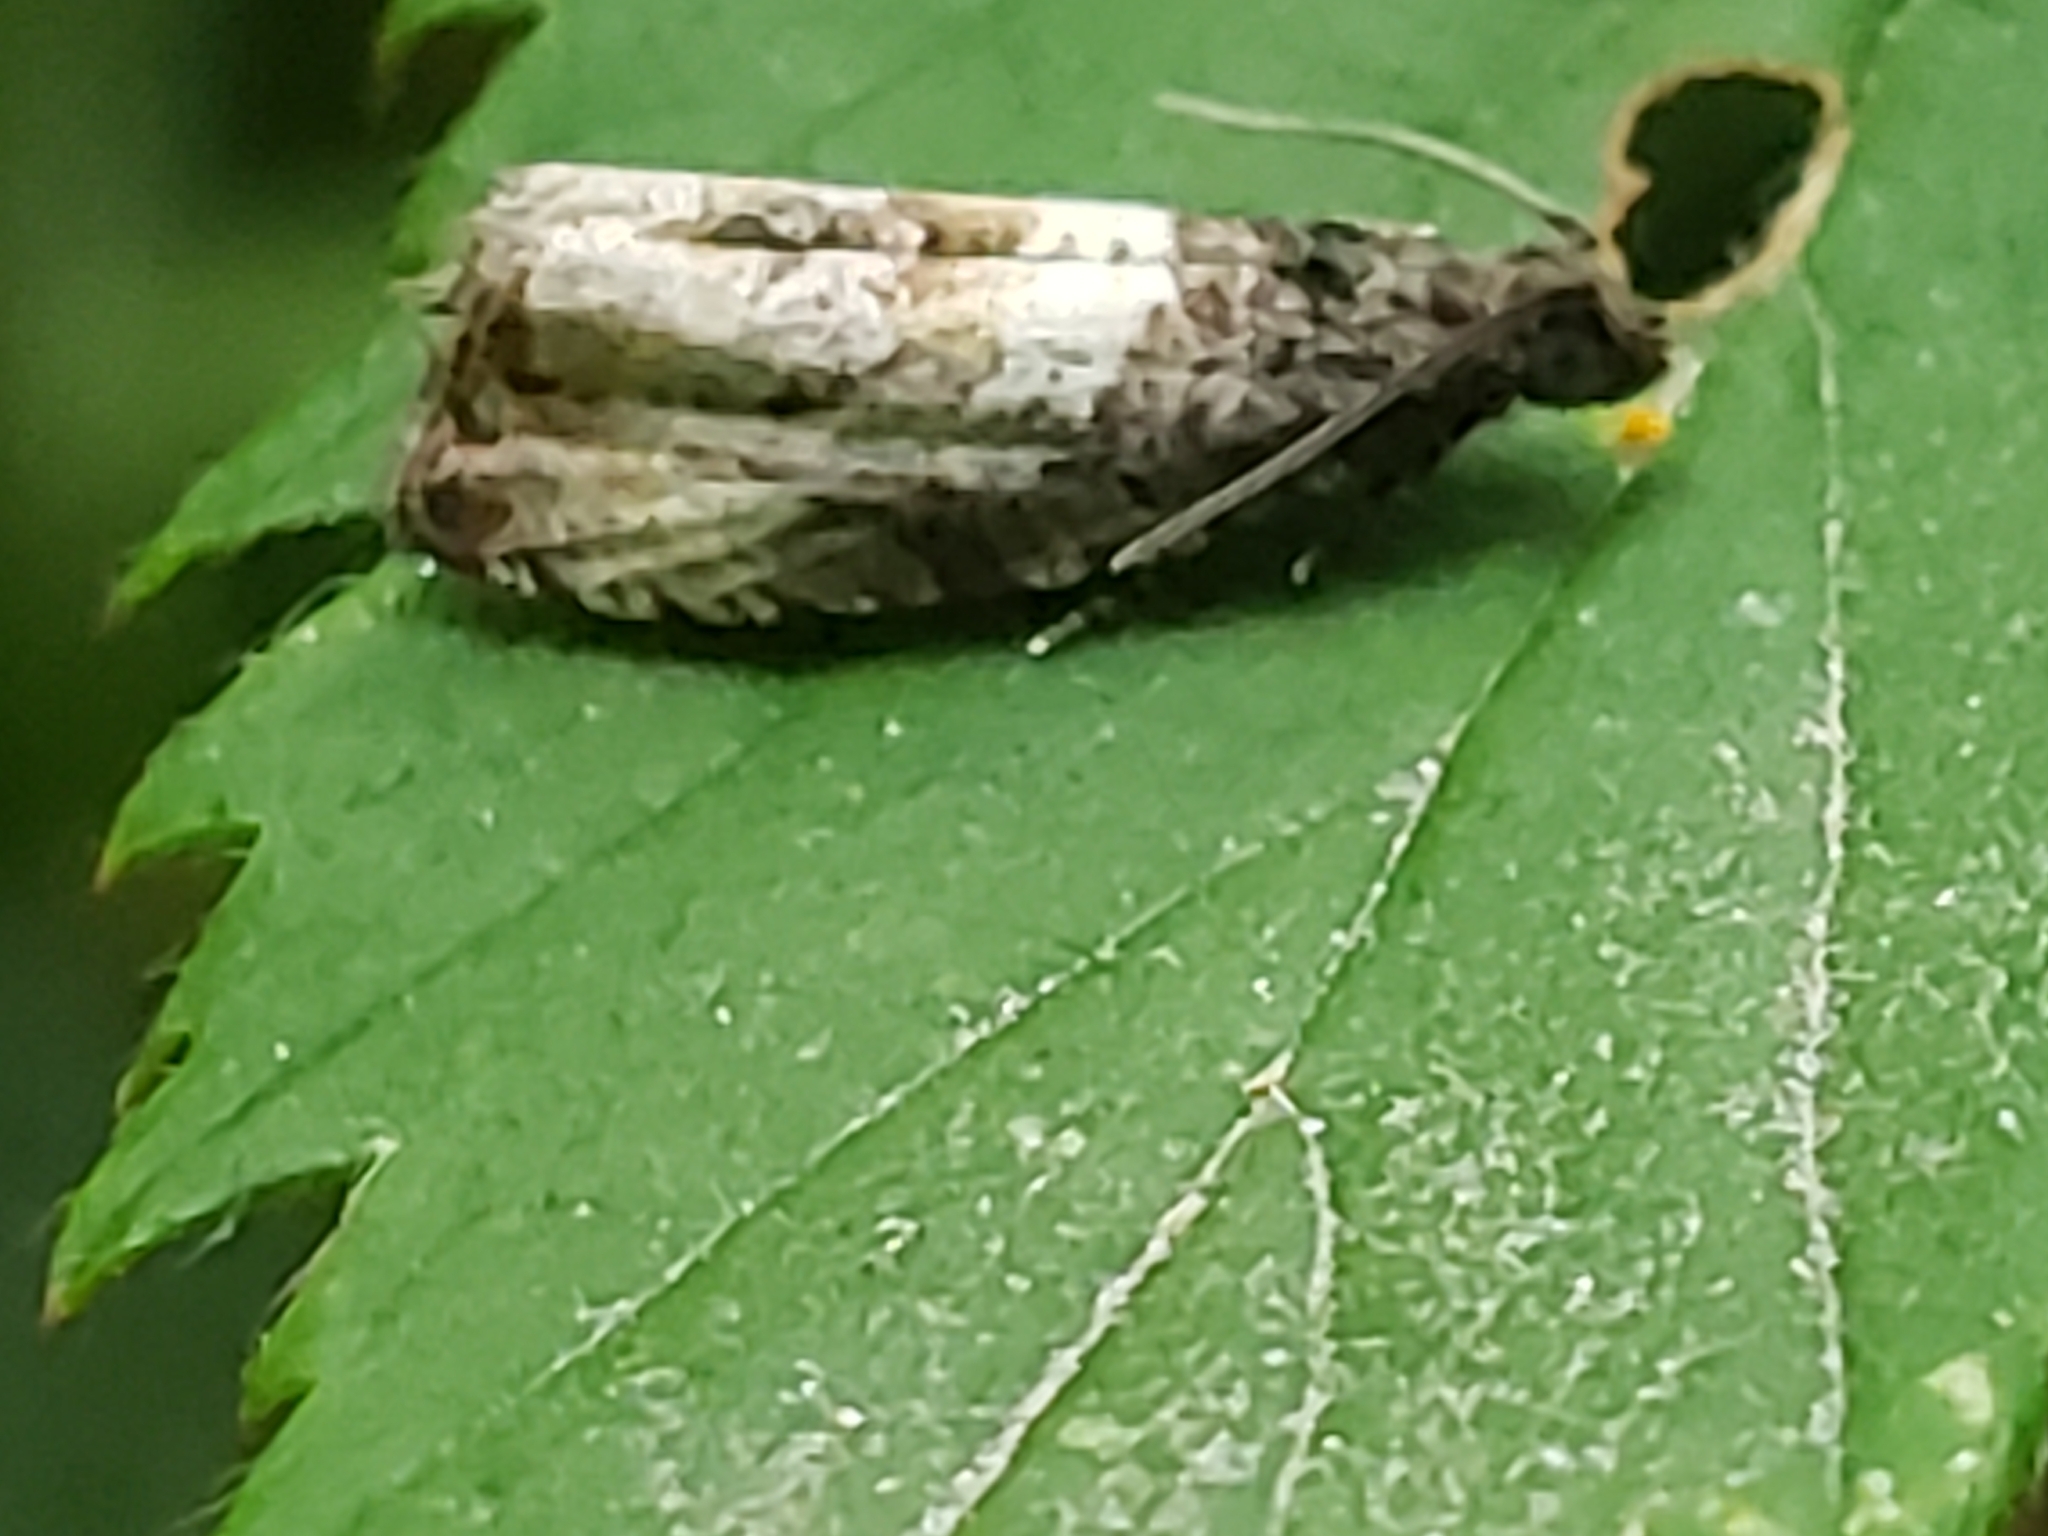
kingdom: Animalia
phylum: Arthropoda
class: Insecta
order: Lepidoptera
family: Tortricidae
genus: Hulda
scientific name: Hulda impudens
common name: Impudent hulda moth
